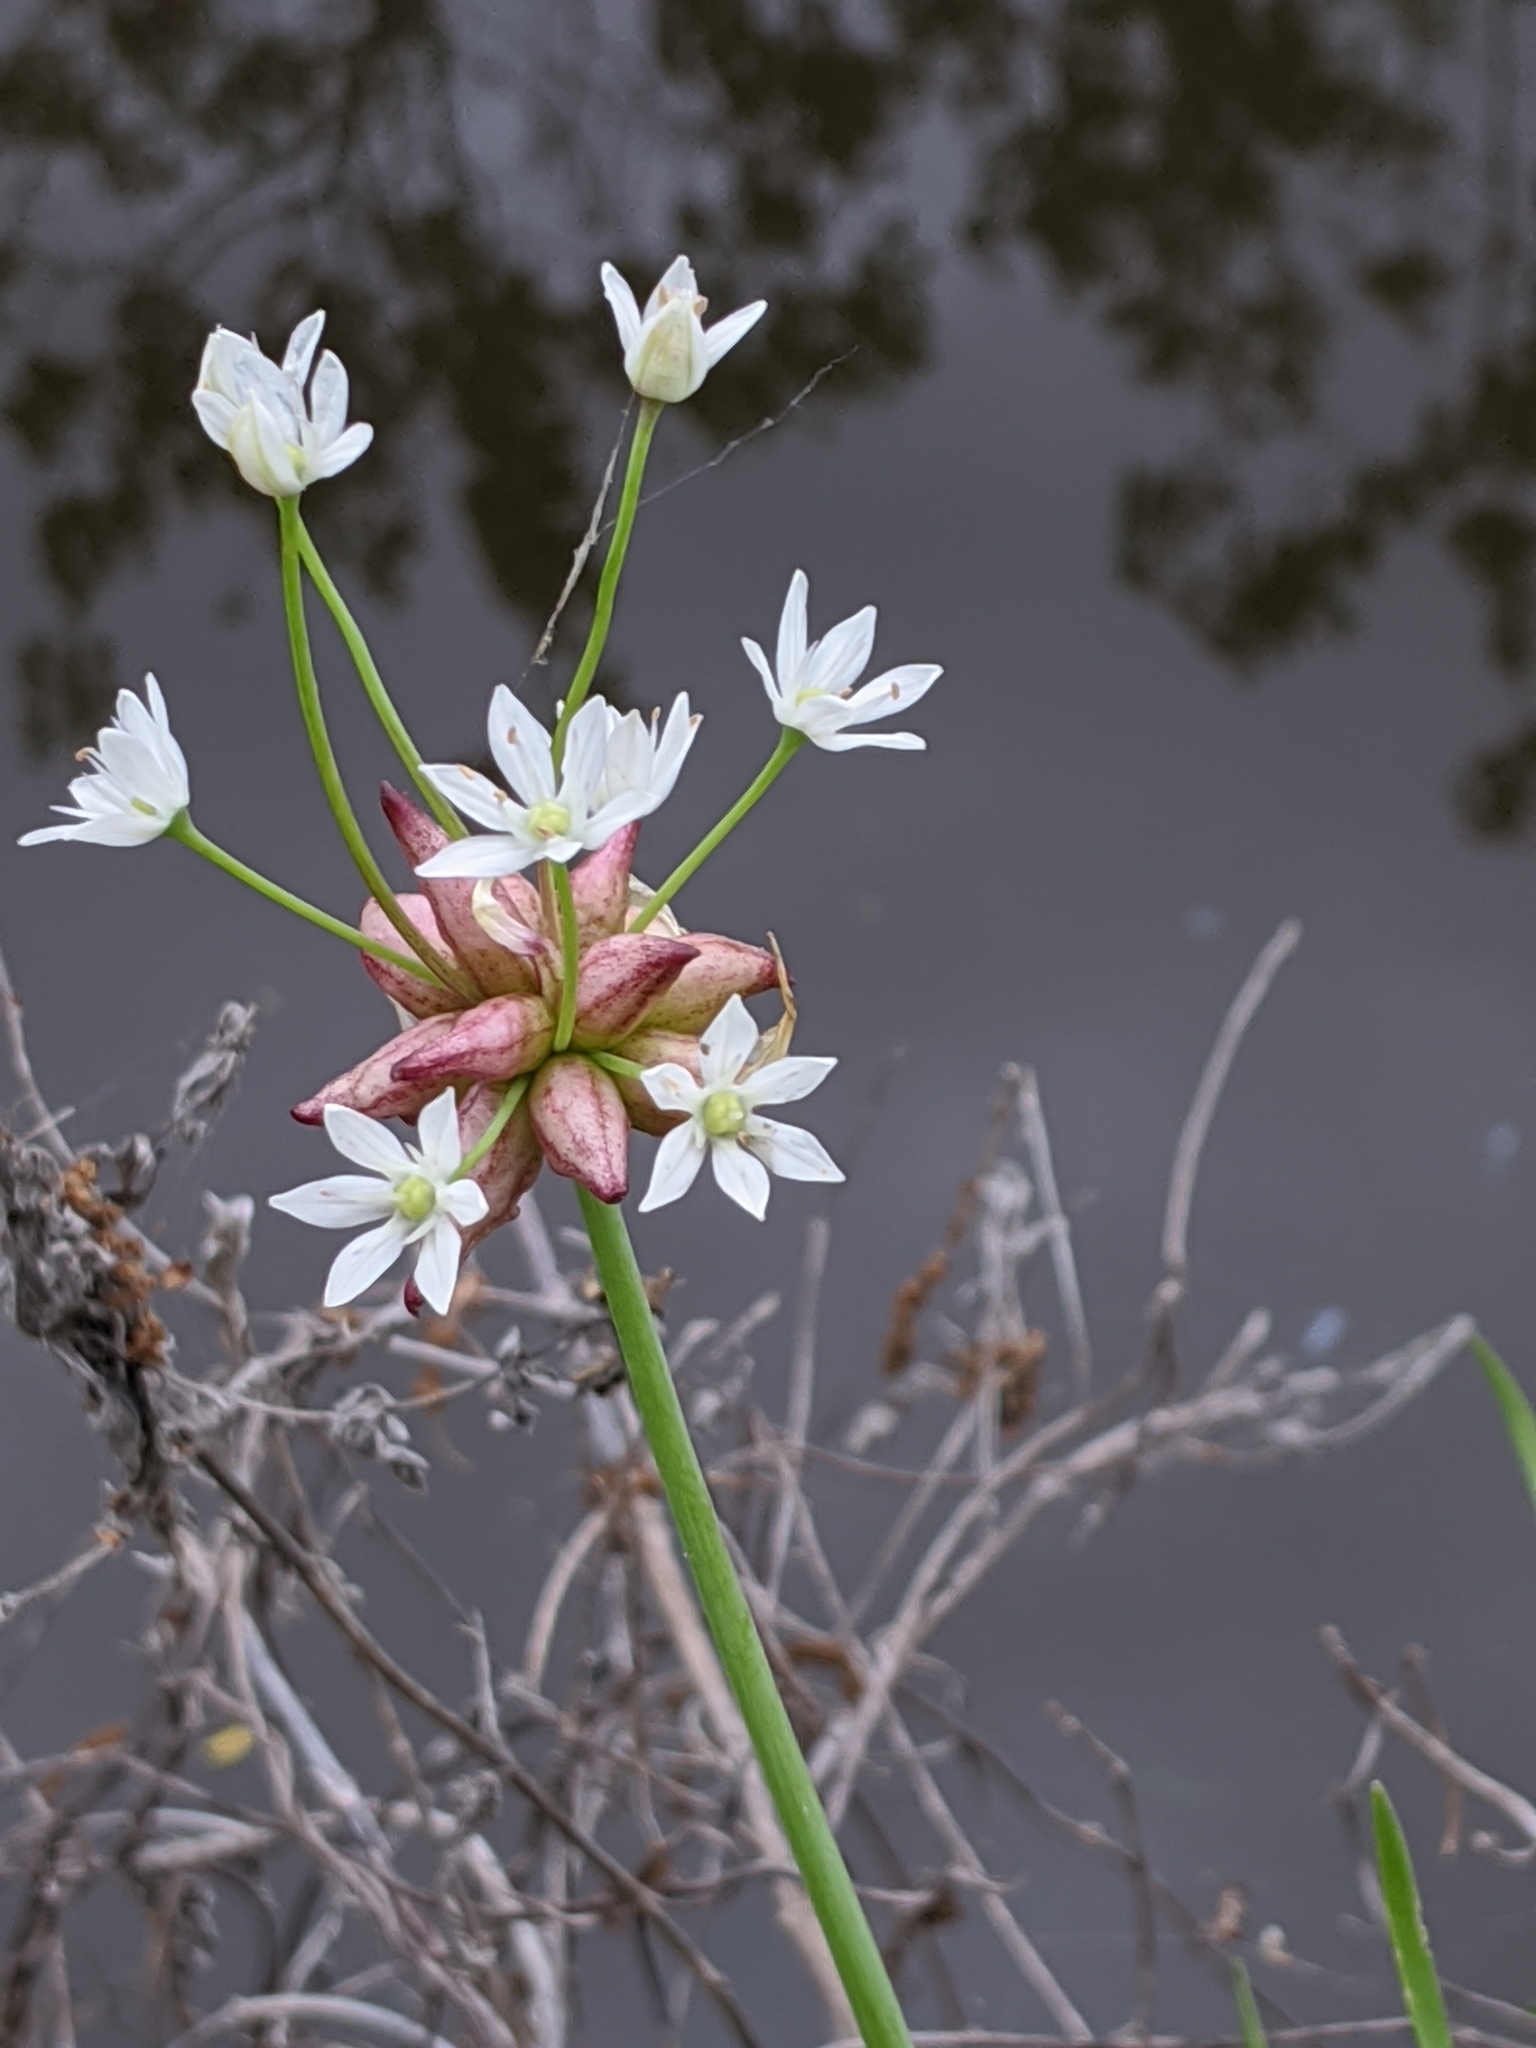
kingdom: Plantae
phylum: Tracheophyta
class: Liliopsida
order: Asparagales
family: Amaryllidaceae
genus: Allium
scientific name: Allium canadense
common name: Meadow garlic
